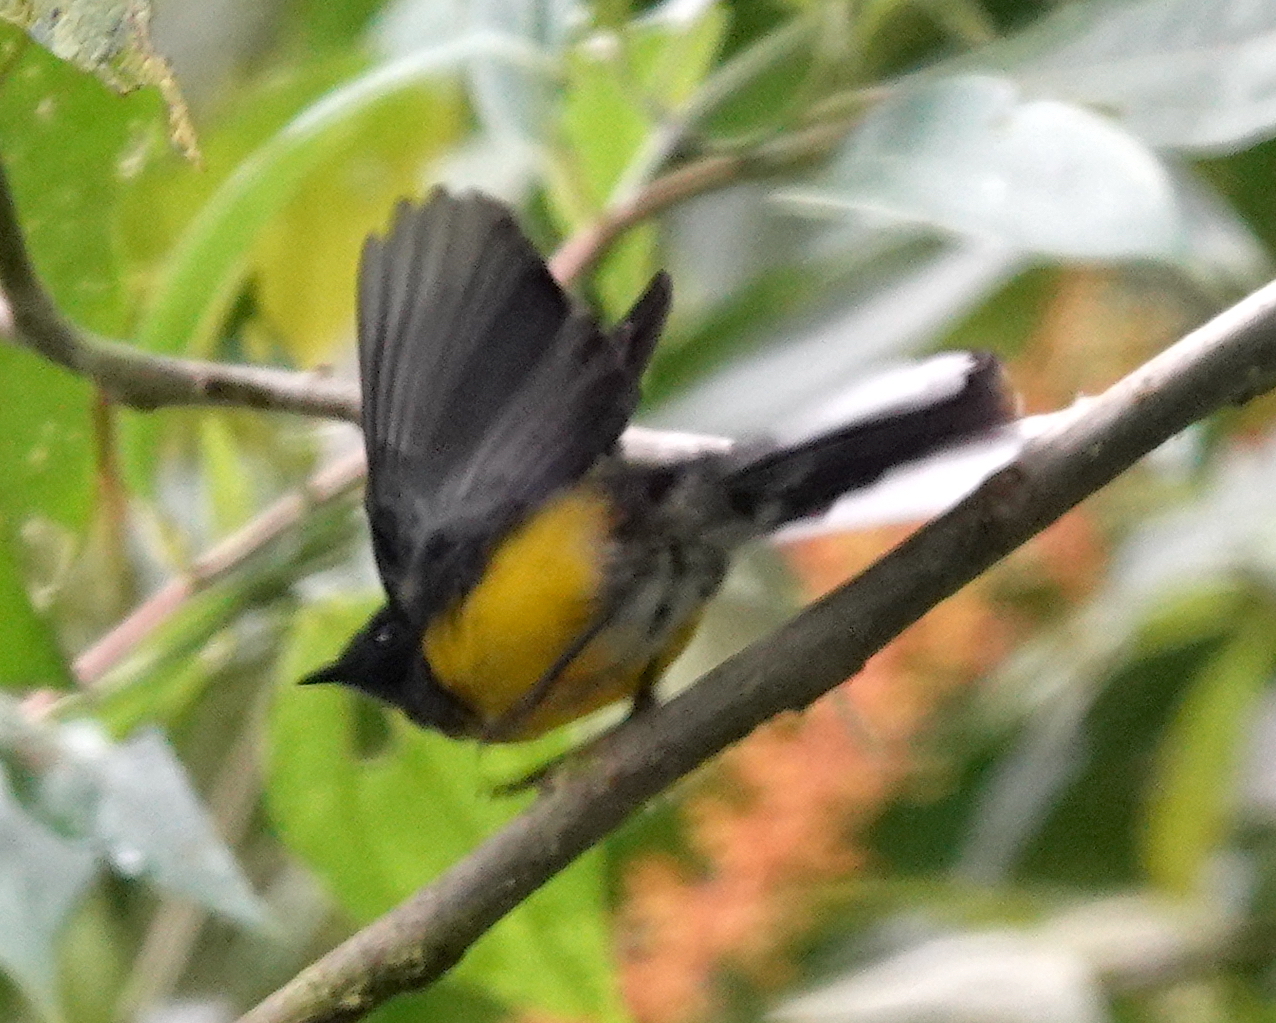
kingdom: Animalia
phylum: Chordata
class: Aves
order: Passeriformes
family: Parulidae
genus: Myioborus
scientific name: Myioborus miniatus
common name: Slate-throated redstart
